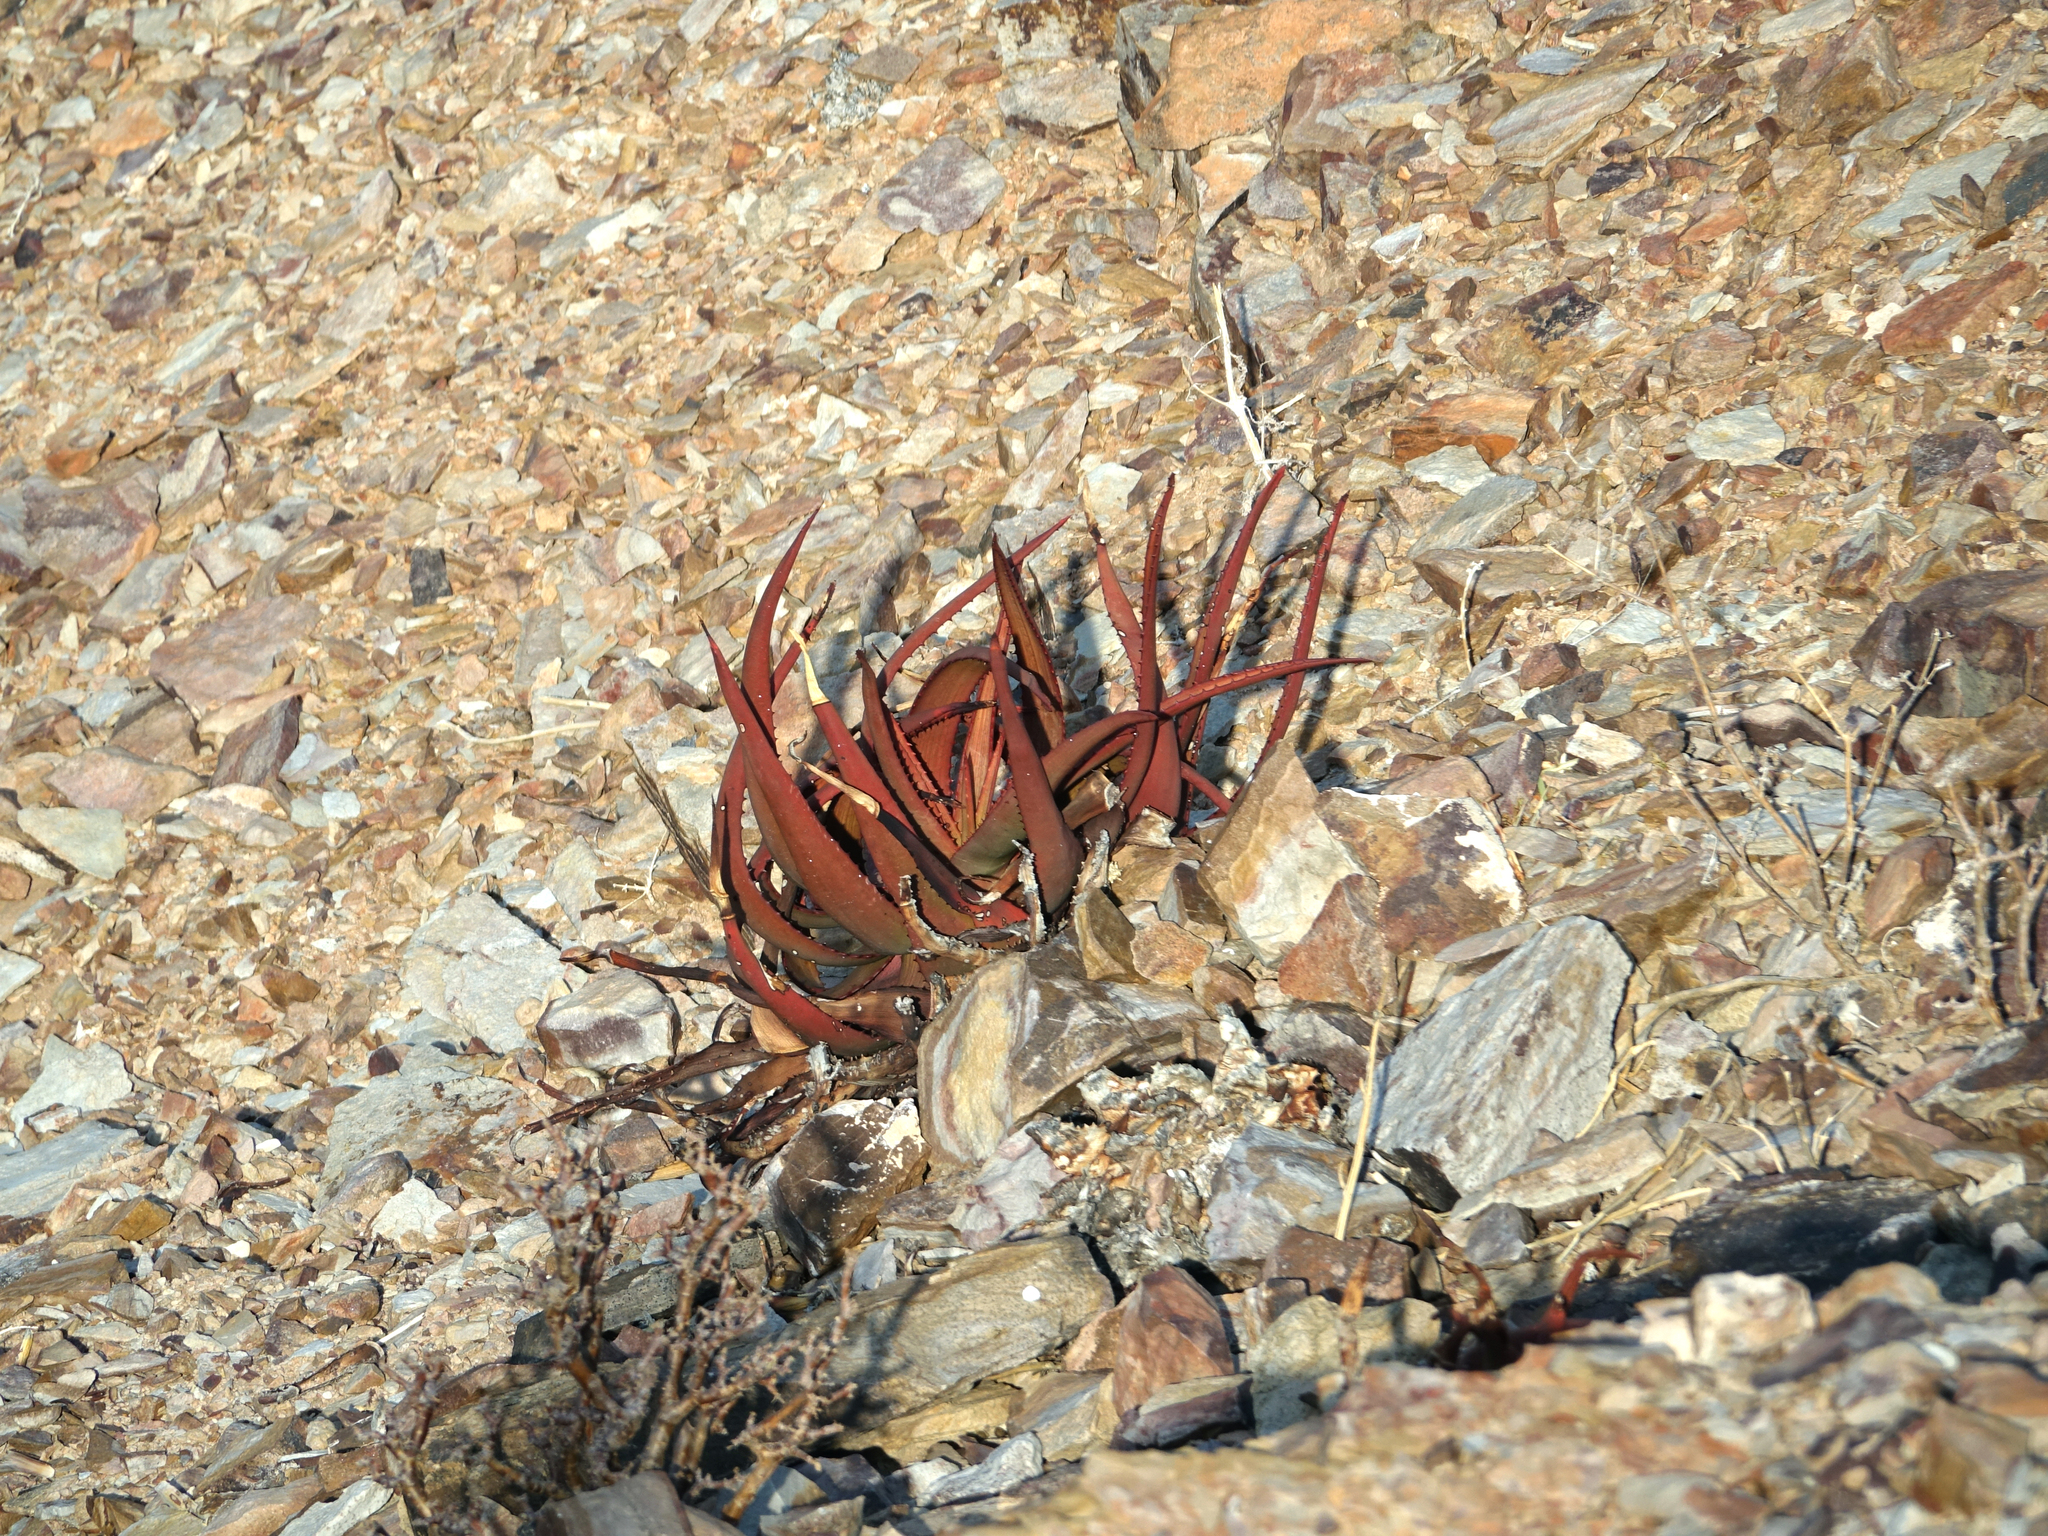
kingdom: Plantae
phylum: Tracheophyta
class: Liliopsida
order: Asparagales
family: Asphodelaceae
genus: Aloe
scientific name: Aloe gariepensis
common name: Orange river aloe
